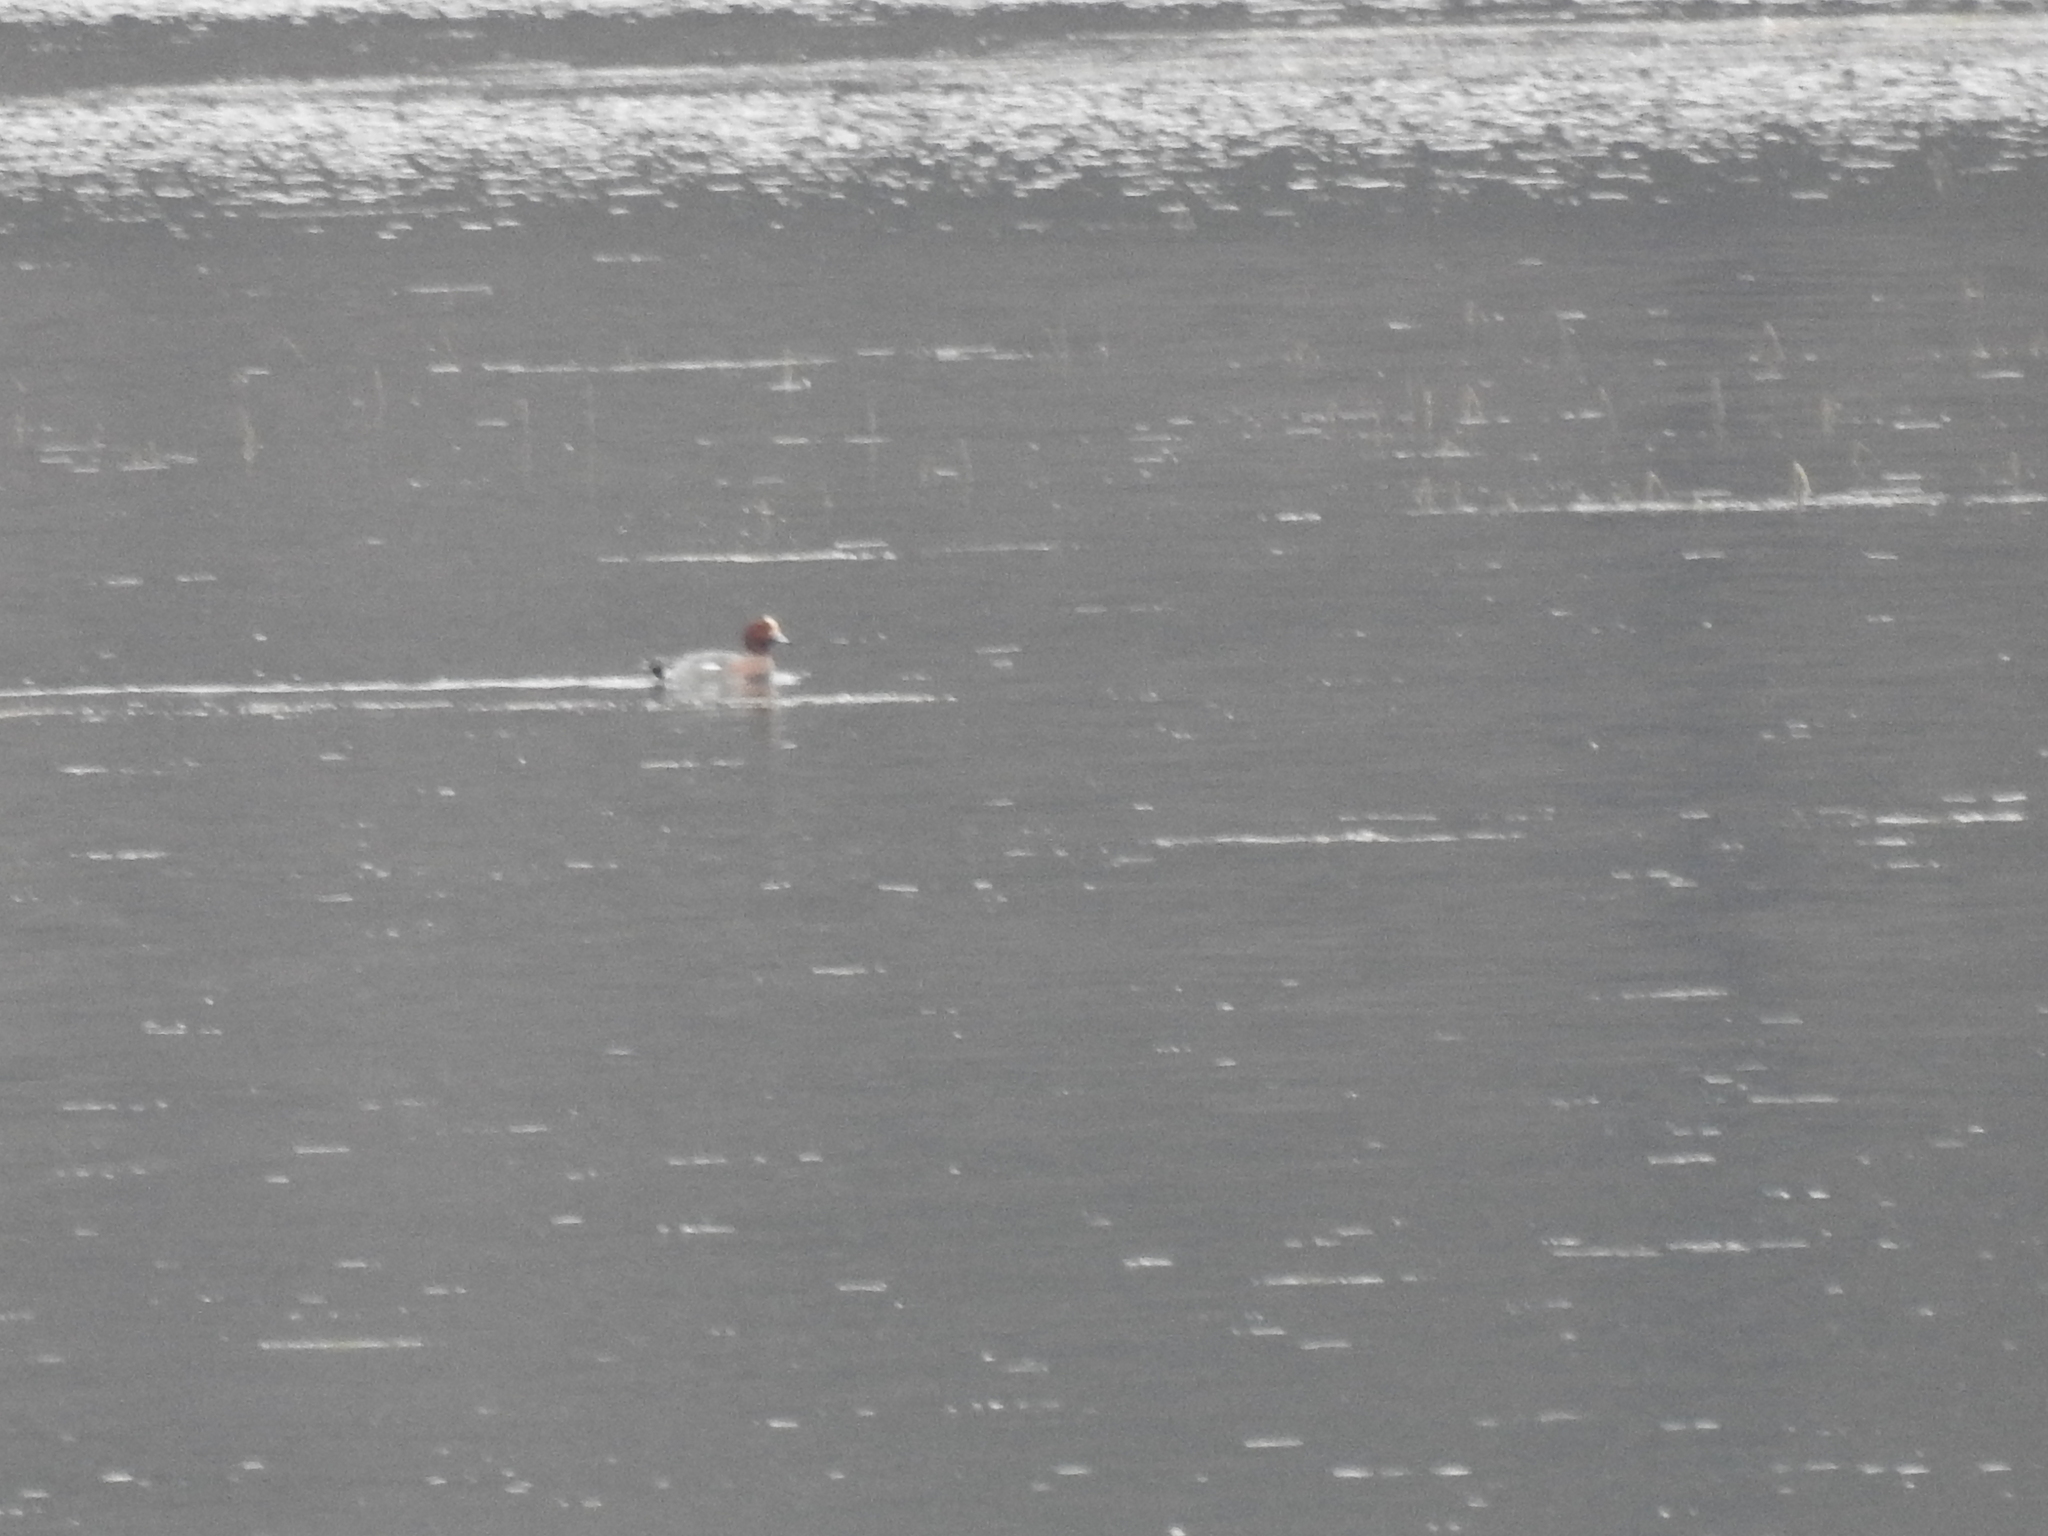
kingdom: Animalia
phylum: Chordata
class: Aves
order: Anseriformes
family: Anatidae
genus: Mareca
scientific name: Mareca penelope
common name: Eurasian wigeon
